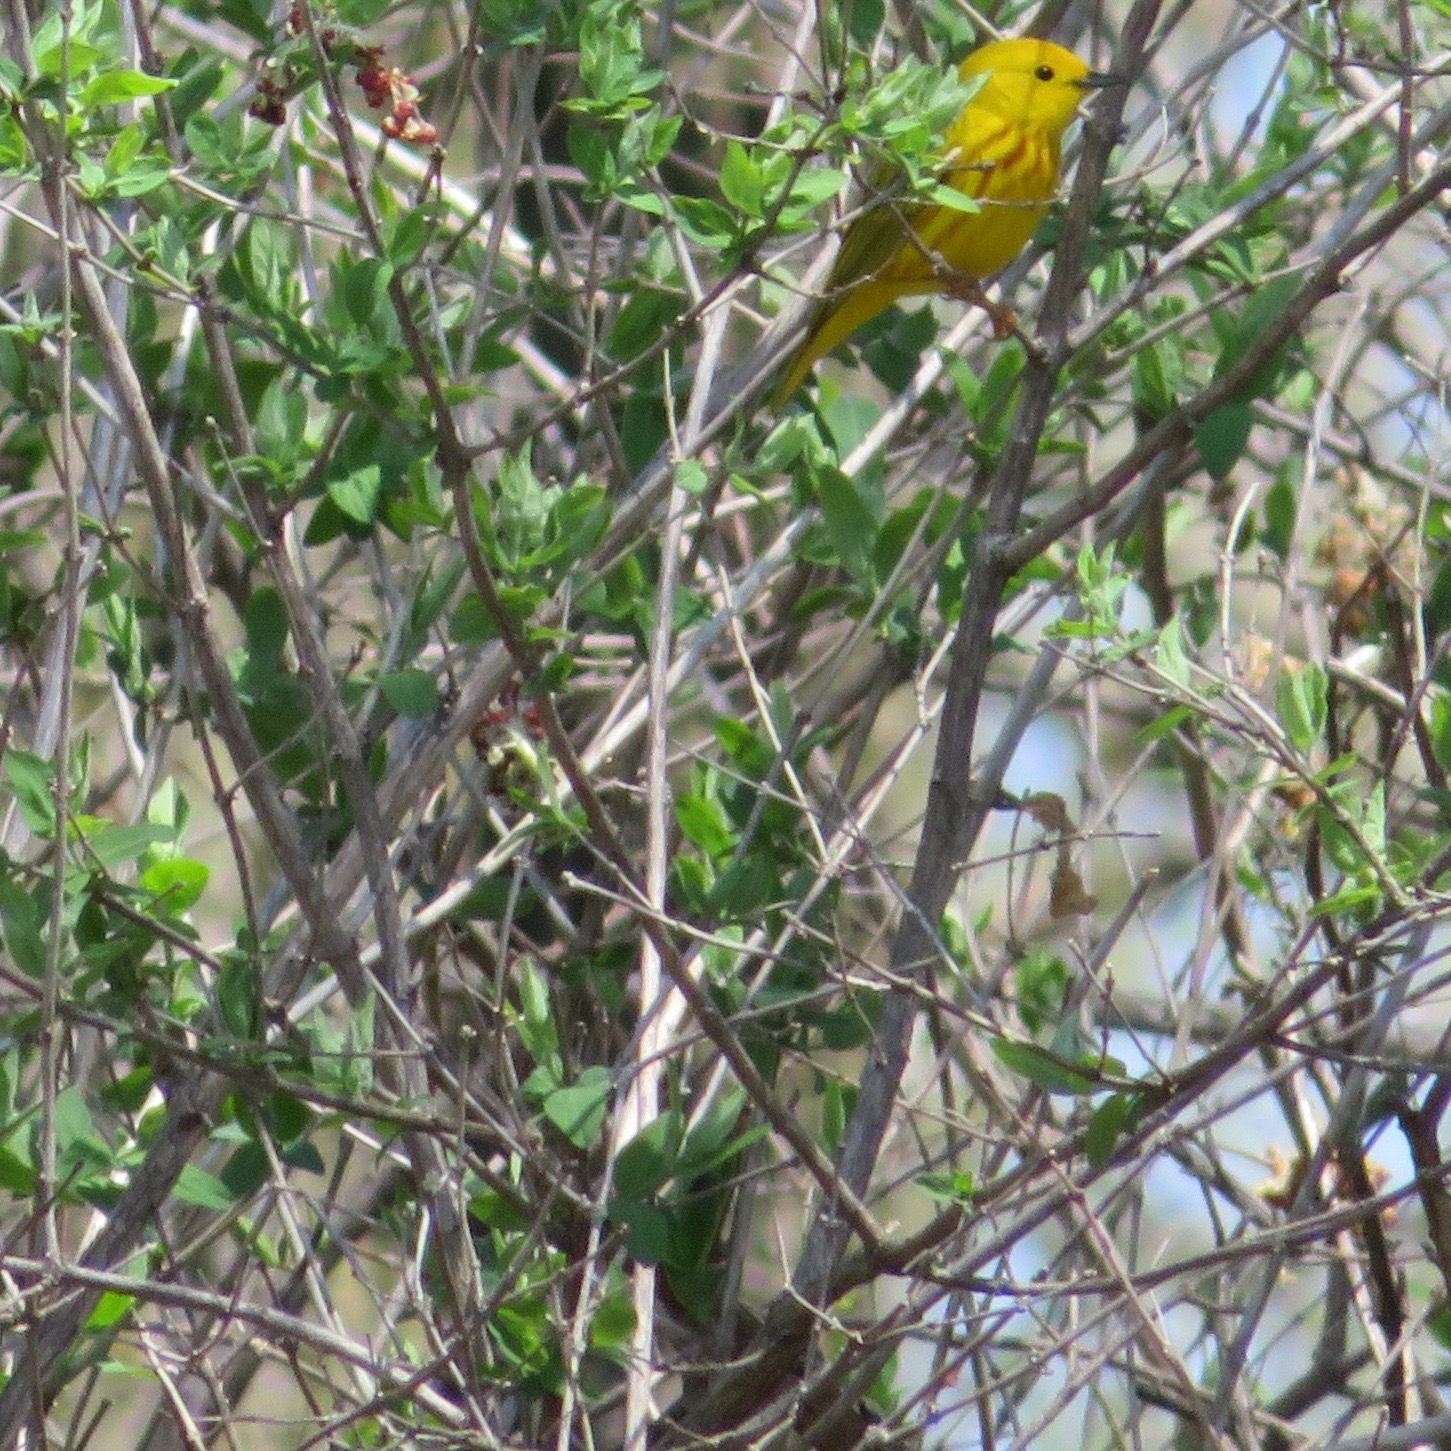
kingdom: Animalia
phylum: Chordata
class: Aves
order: Passeriformes
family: Parulidae
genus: Setophaga
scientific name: Setophaga petechia
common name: Yellow warbler
